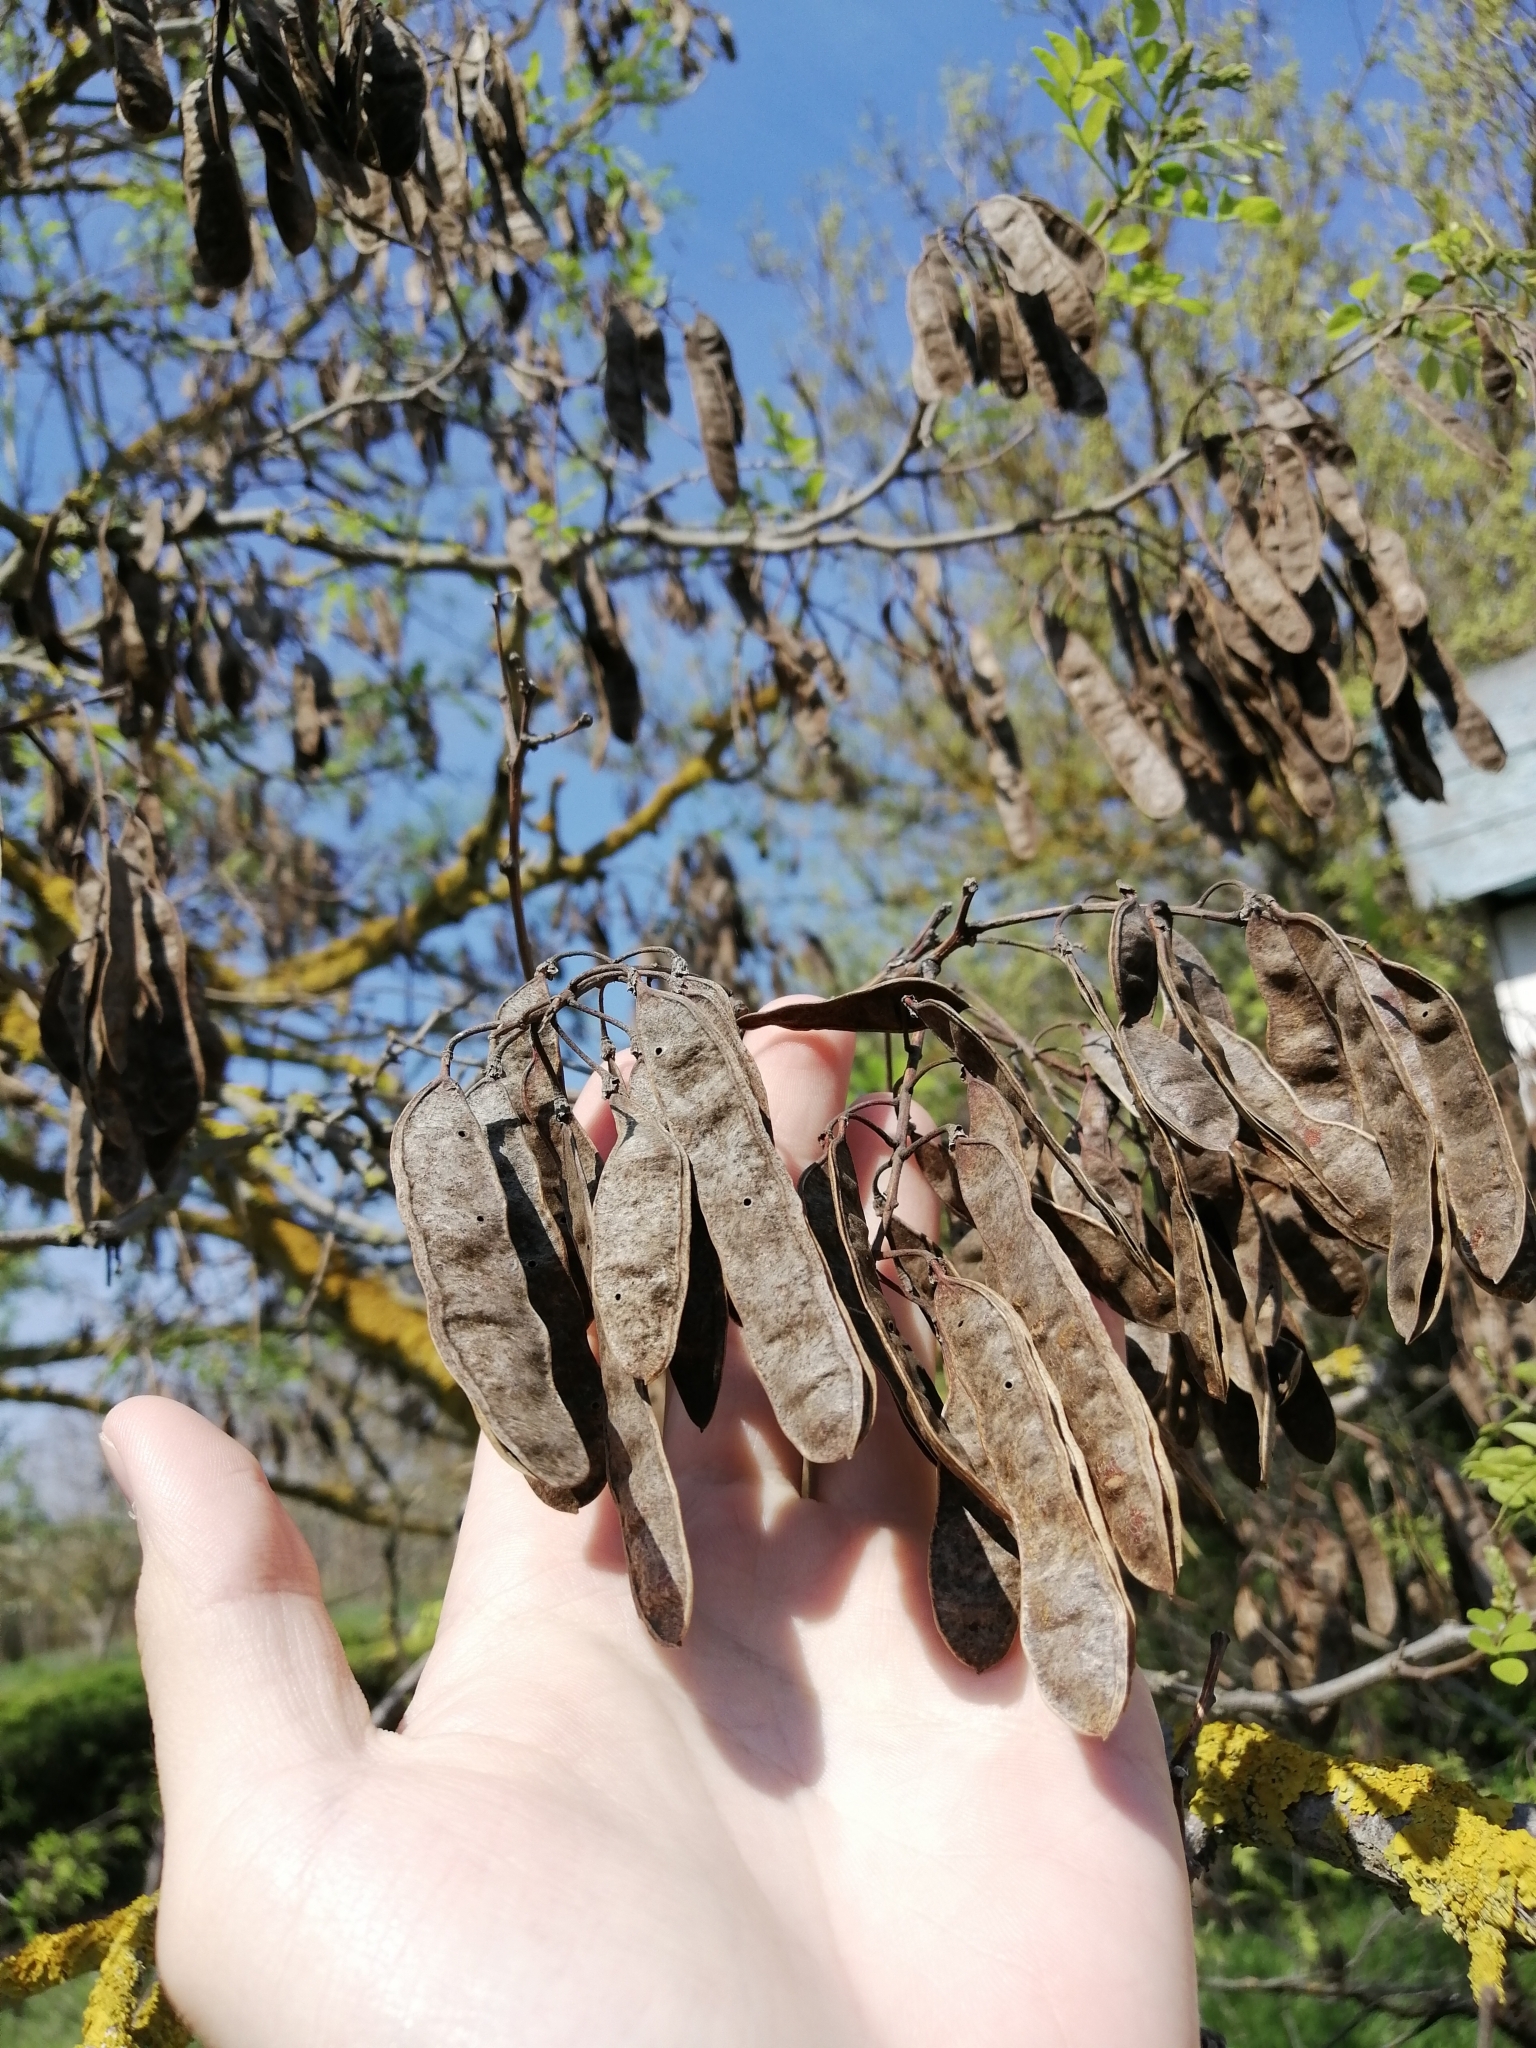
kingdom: Plantae
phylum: Tracheophyta
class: Magnoliopsida
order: Fabales
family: Fabaceae
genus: Robinia
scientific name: Robinia pseudoacacia
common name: Black locust
